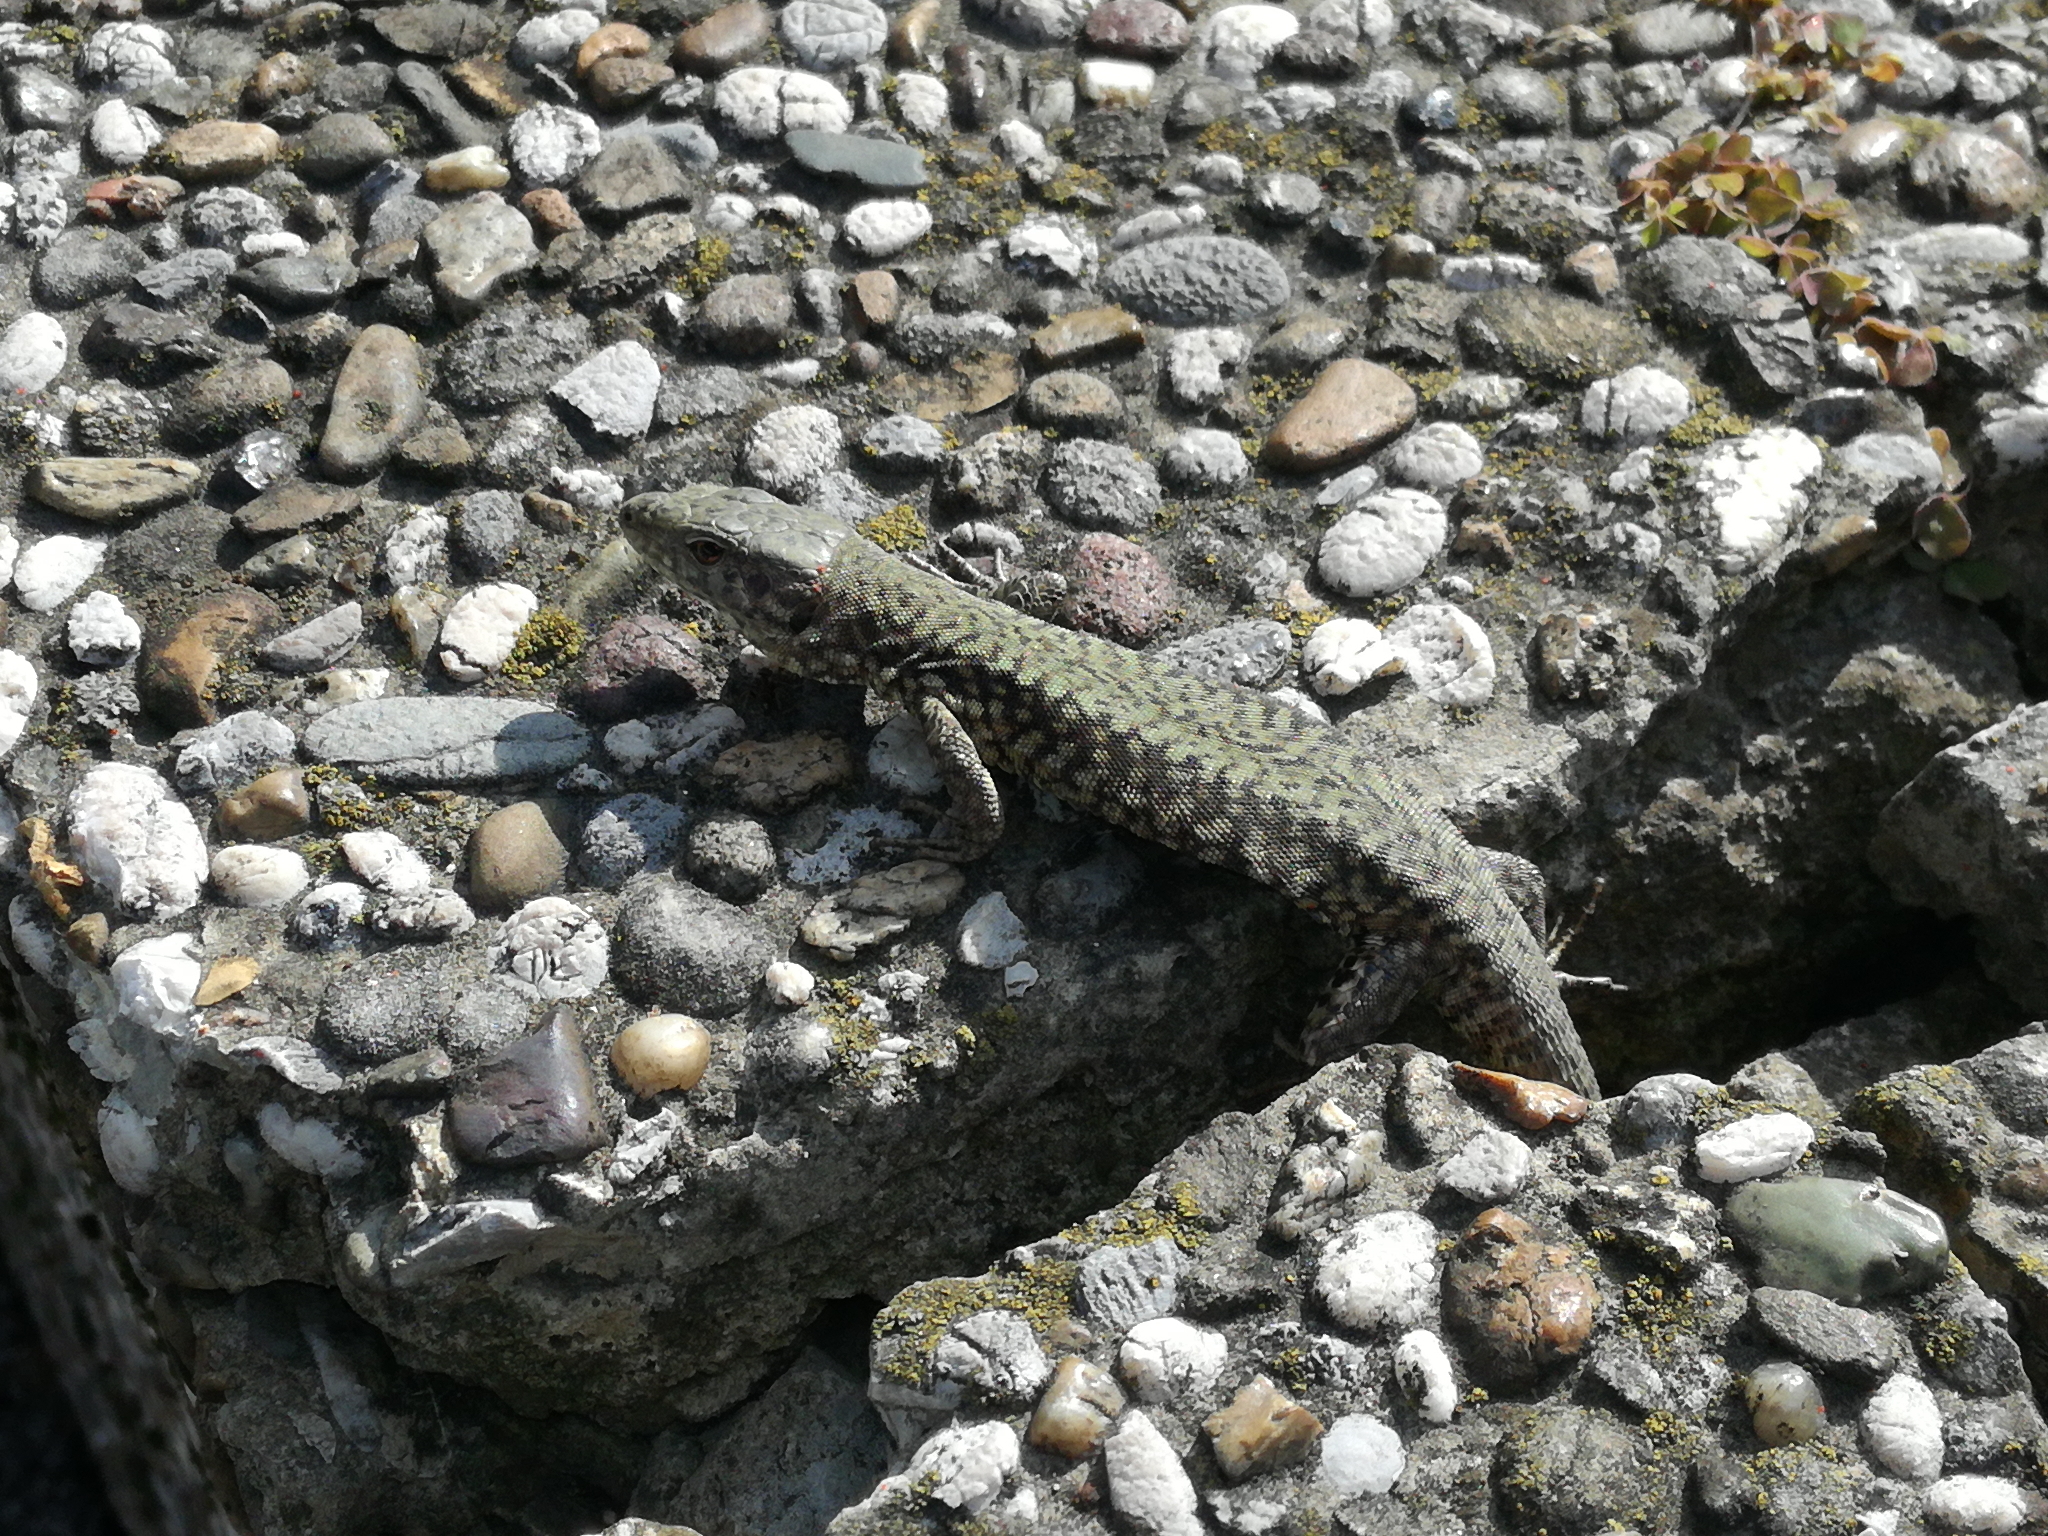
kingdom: Animalia
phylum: Chordata
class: Squamata
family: Lacertidae
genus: Podarcis
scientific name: Podarcis muralis
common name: Common wall lizard
